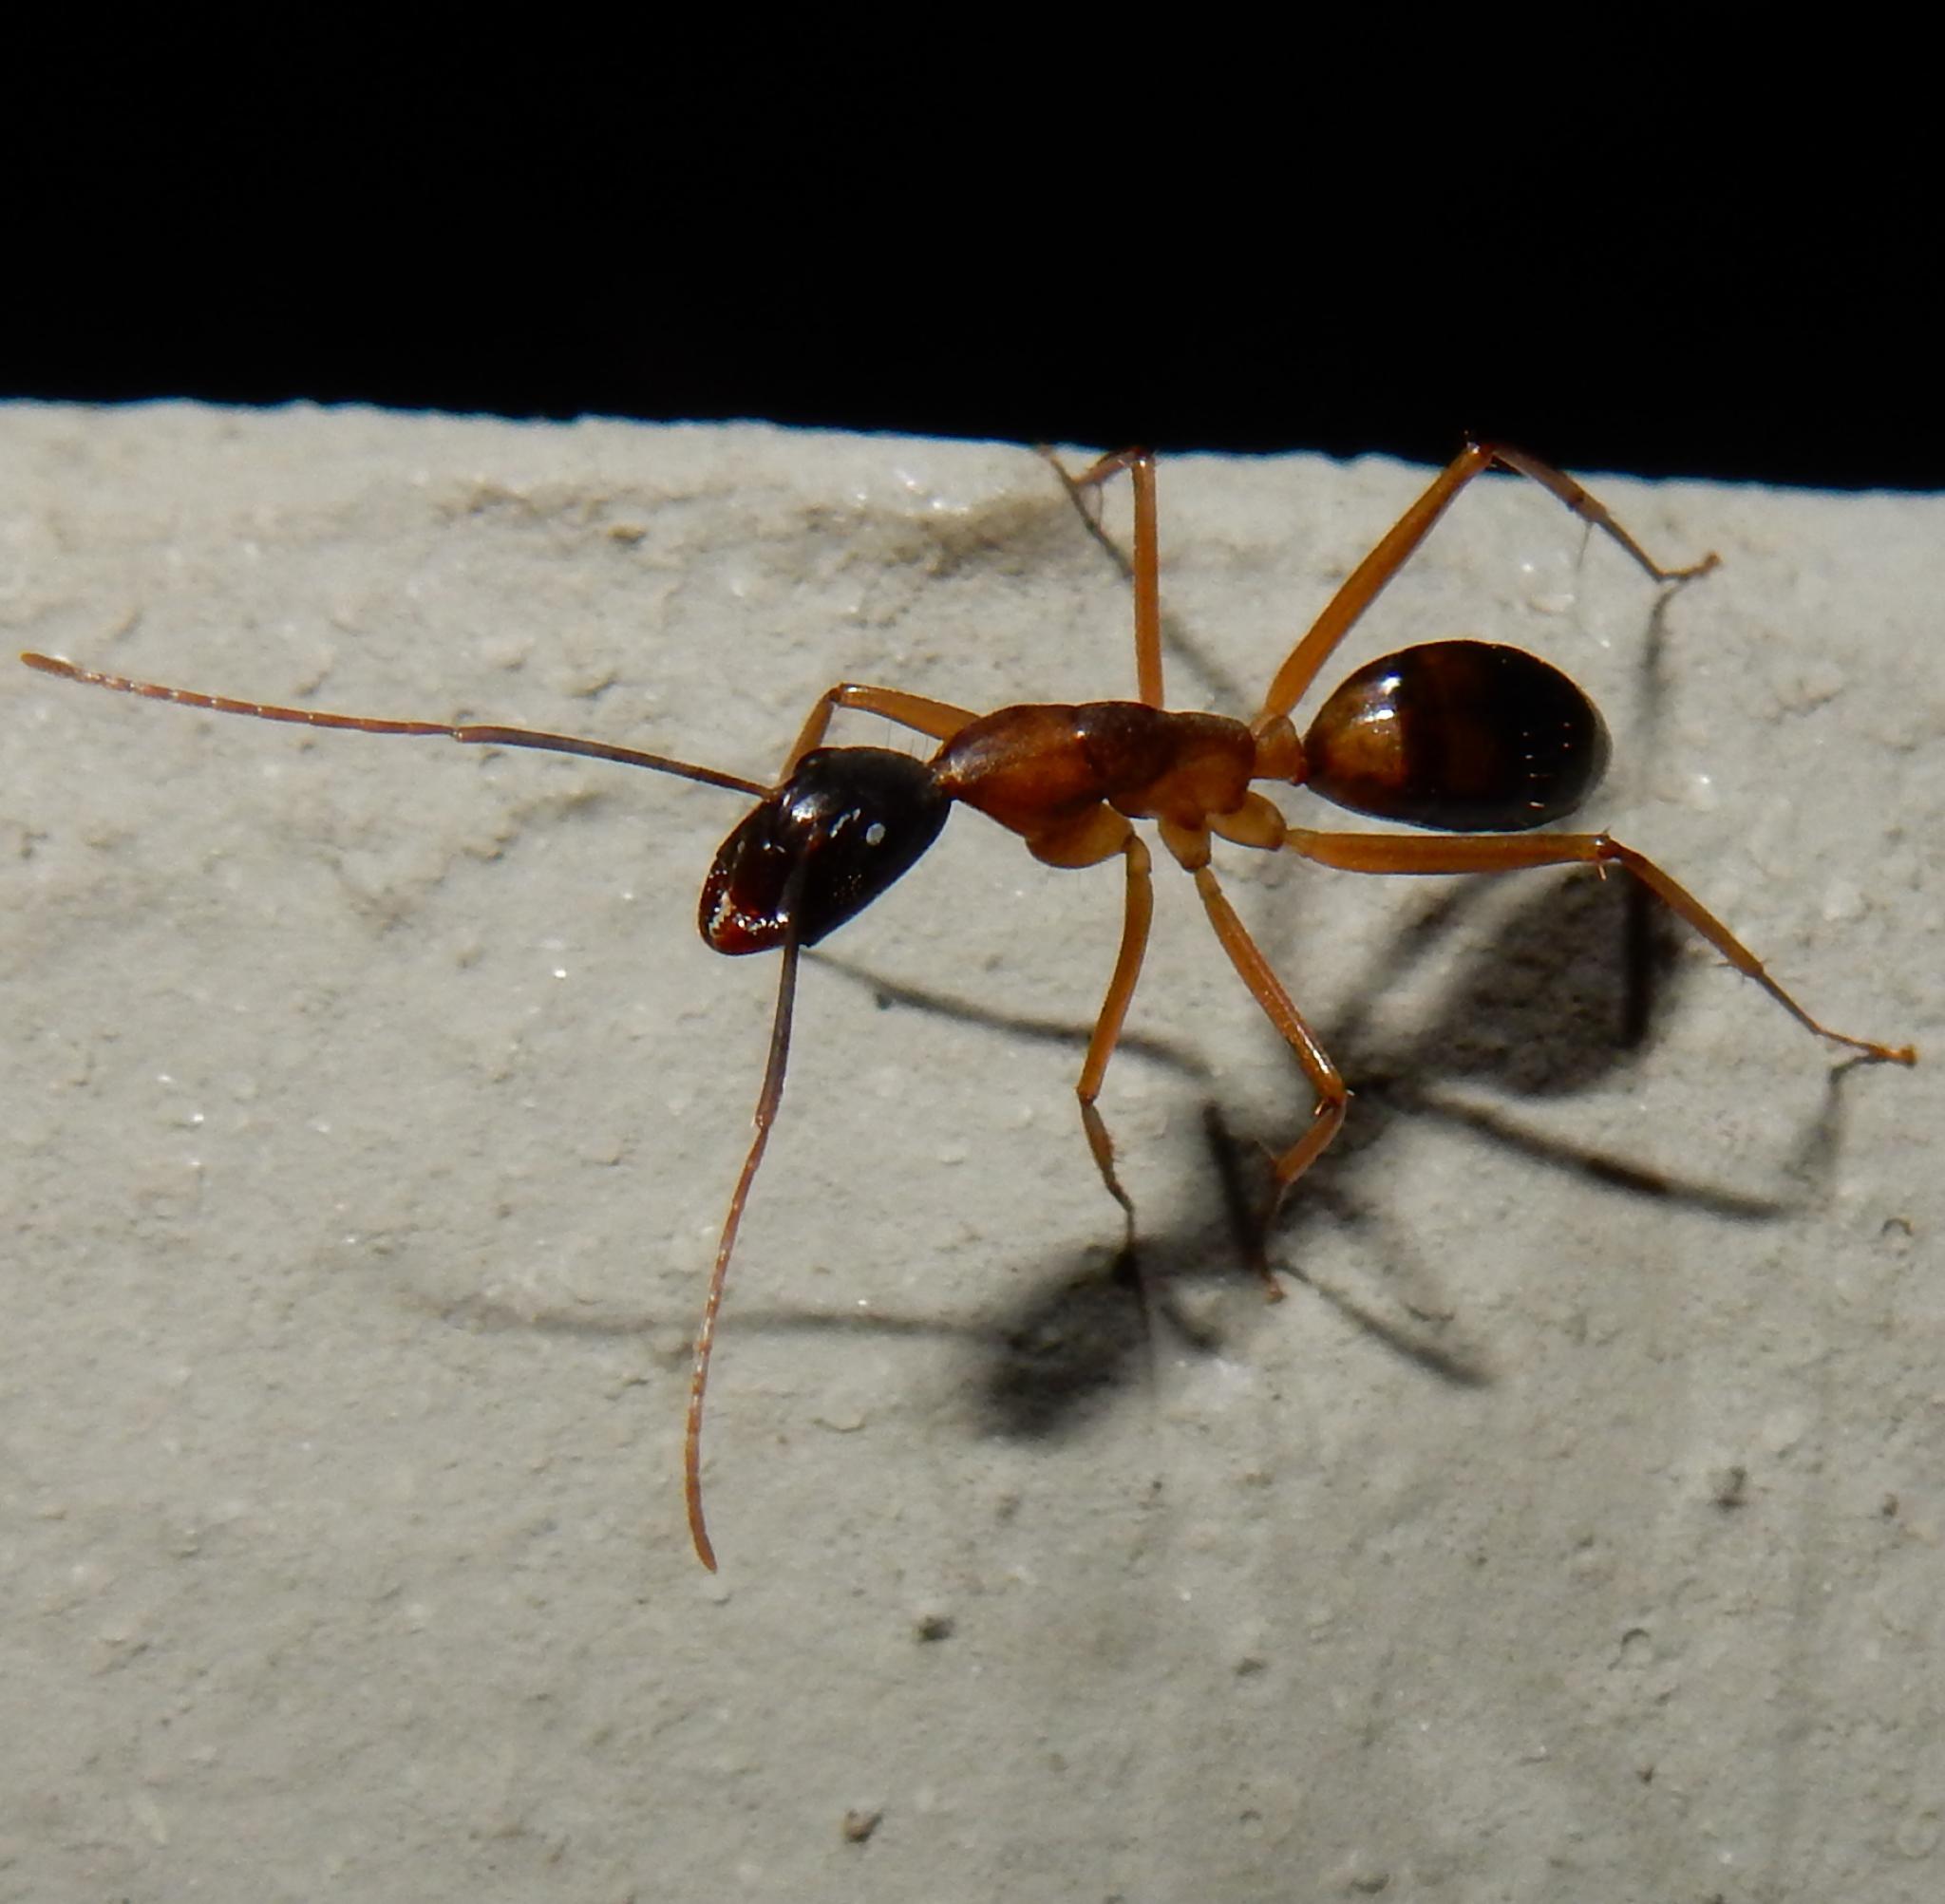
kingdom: Animalia
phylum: Arthropoda
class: Insecta
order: Hymenoptera
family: Formicidae
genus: Camponotus
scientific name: Camponotus baynei
